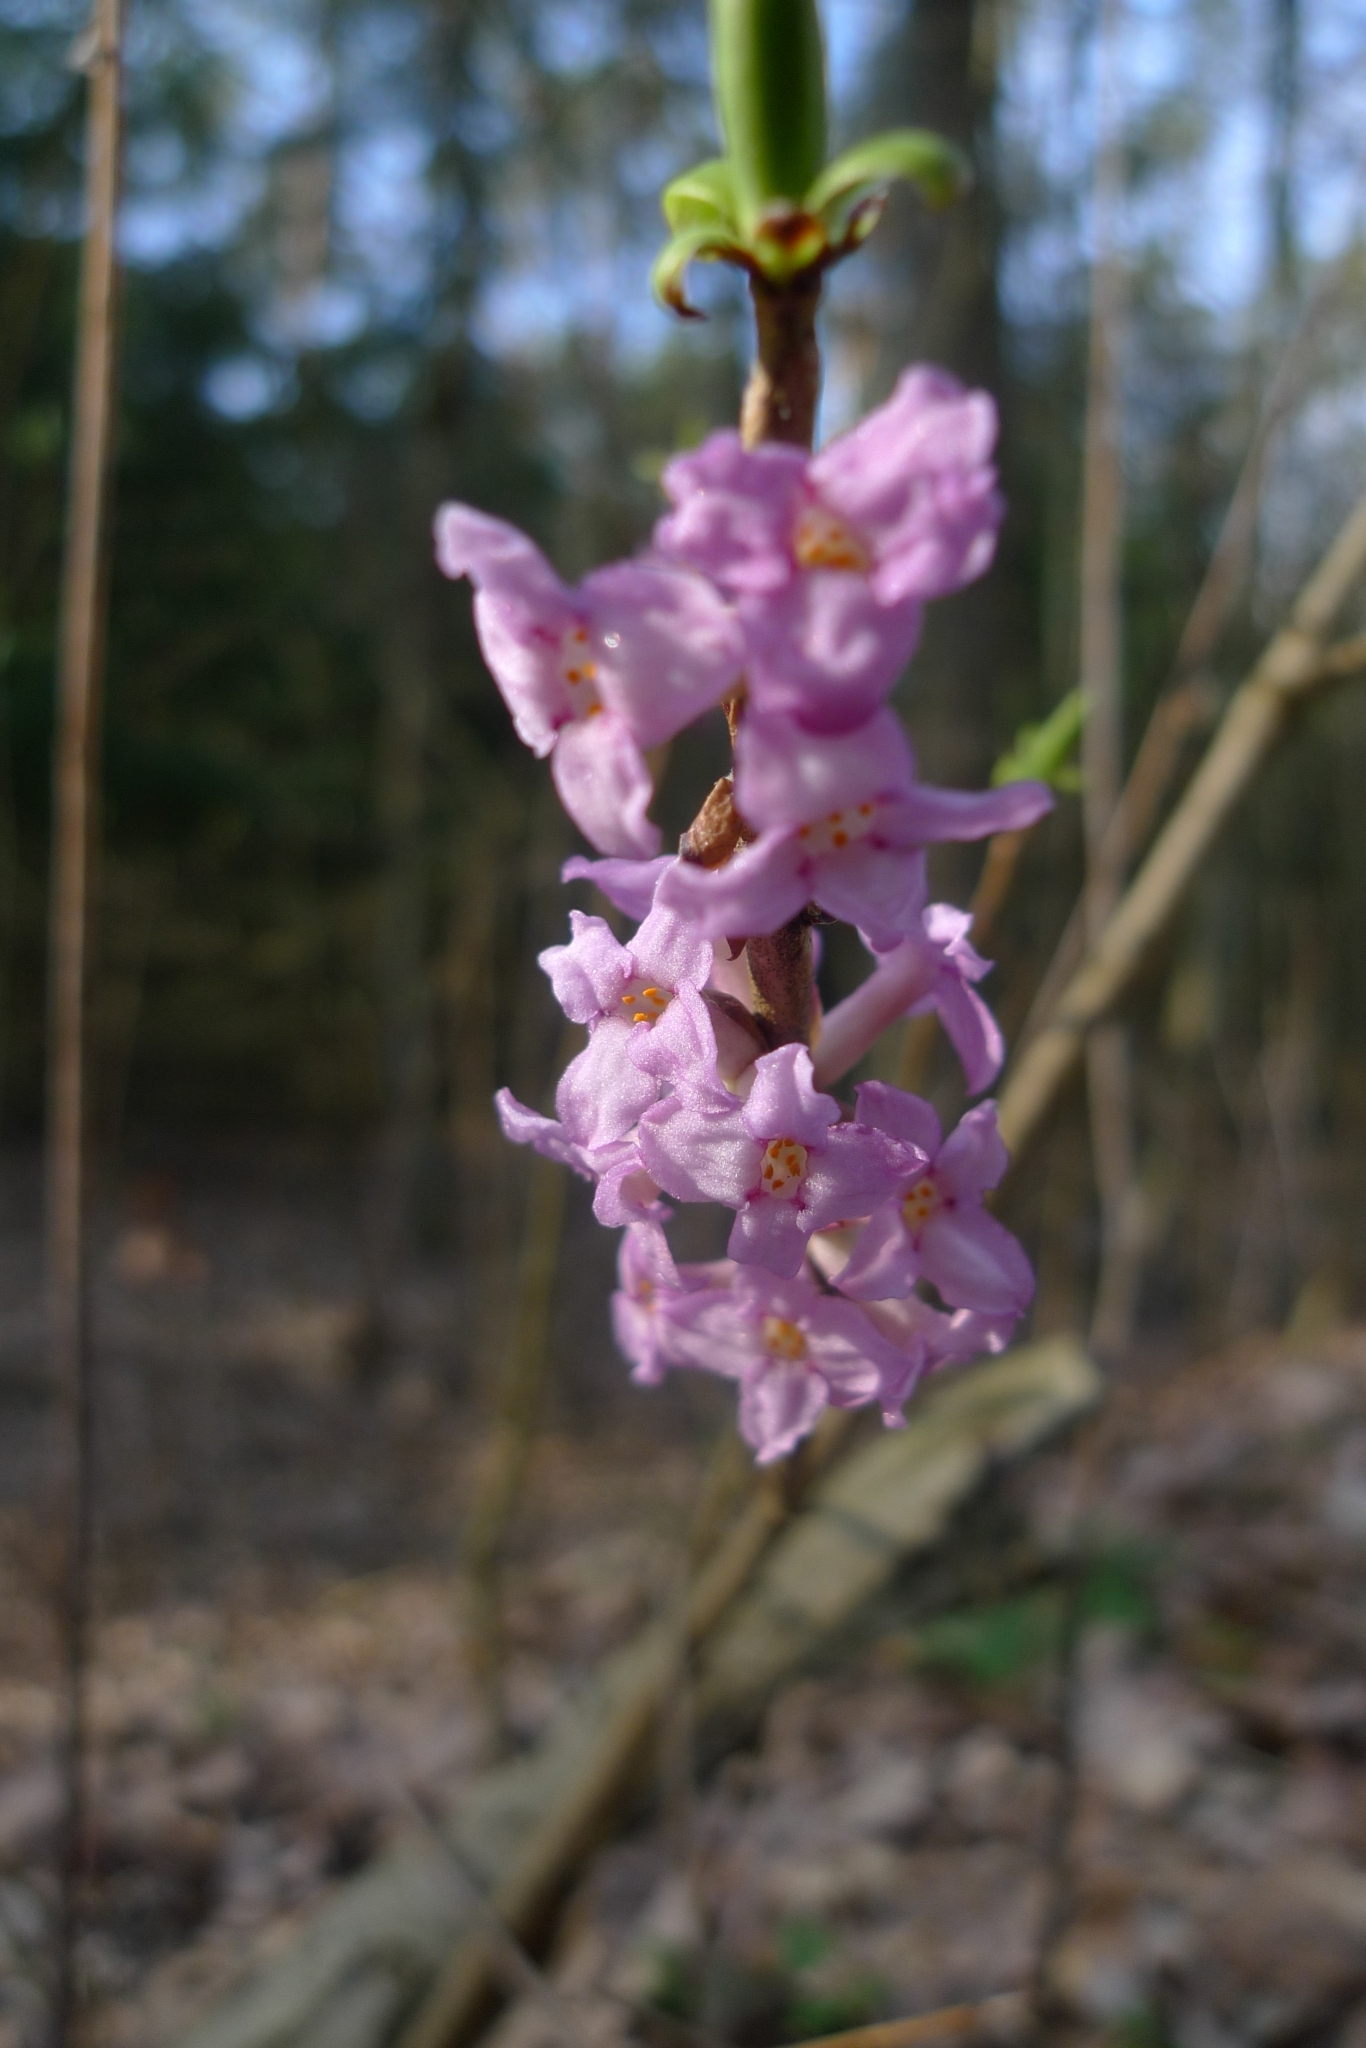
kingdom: Plantae
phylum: Tracheophyta
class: Magnoliopsida
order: Malvales
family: Thymelaeaceae
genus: Daphne
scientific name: Daphne mezereum
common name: Mezereon
